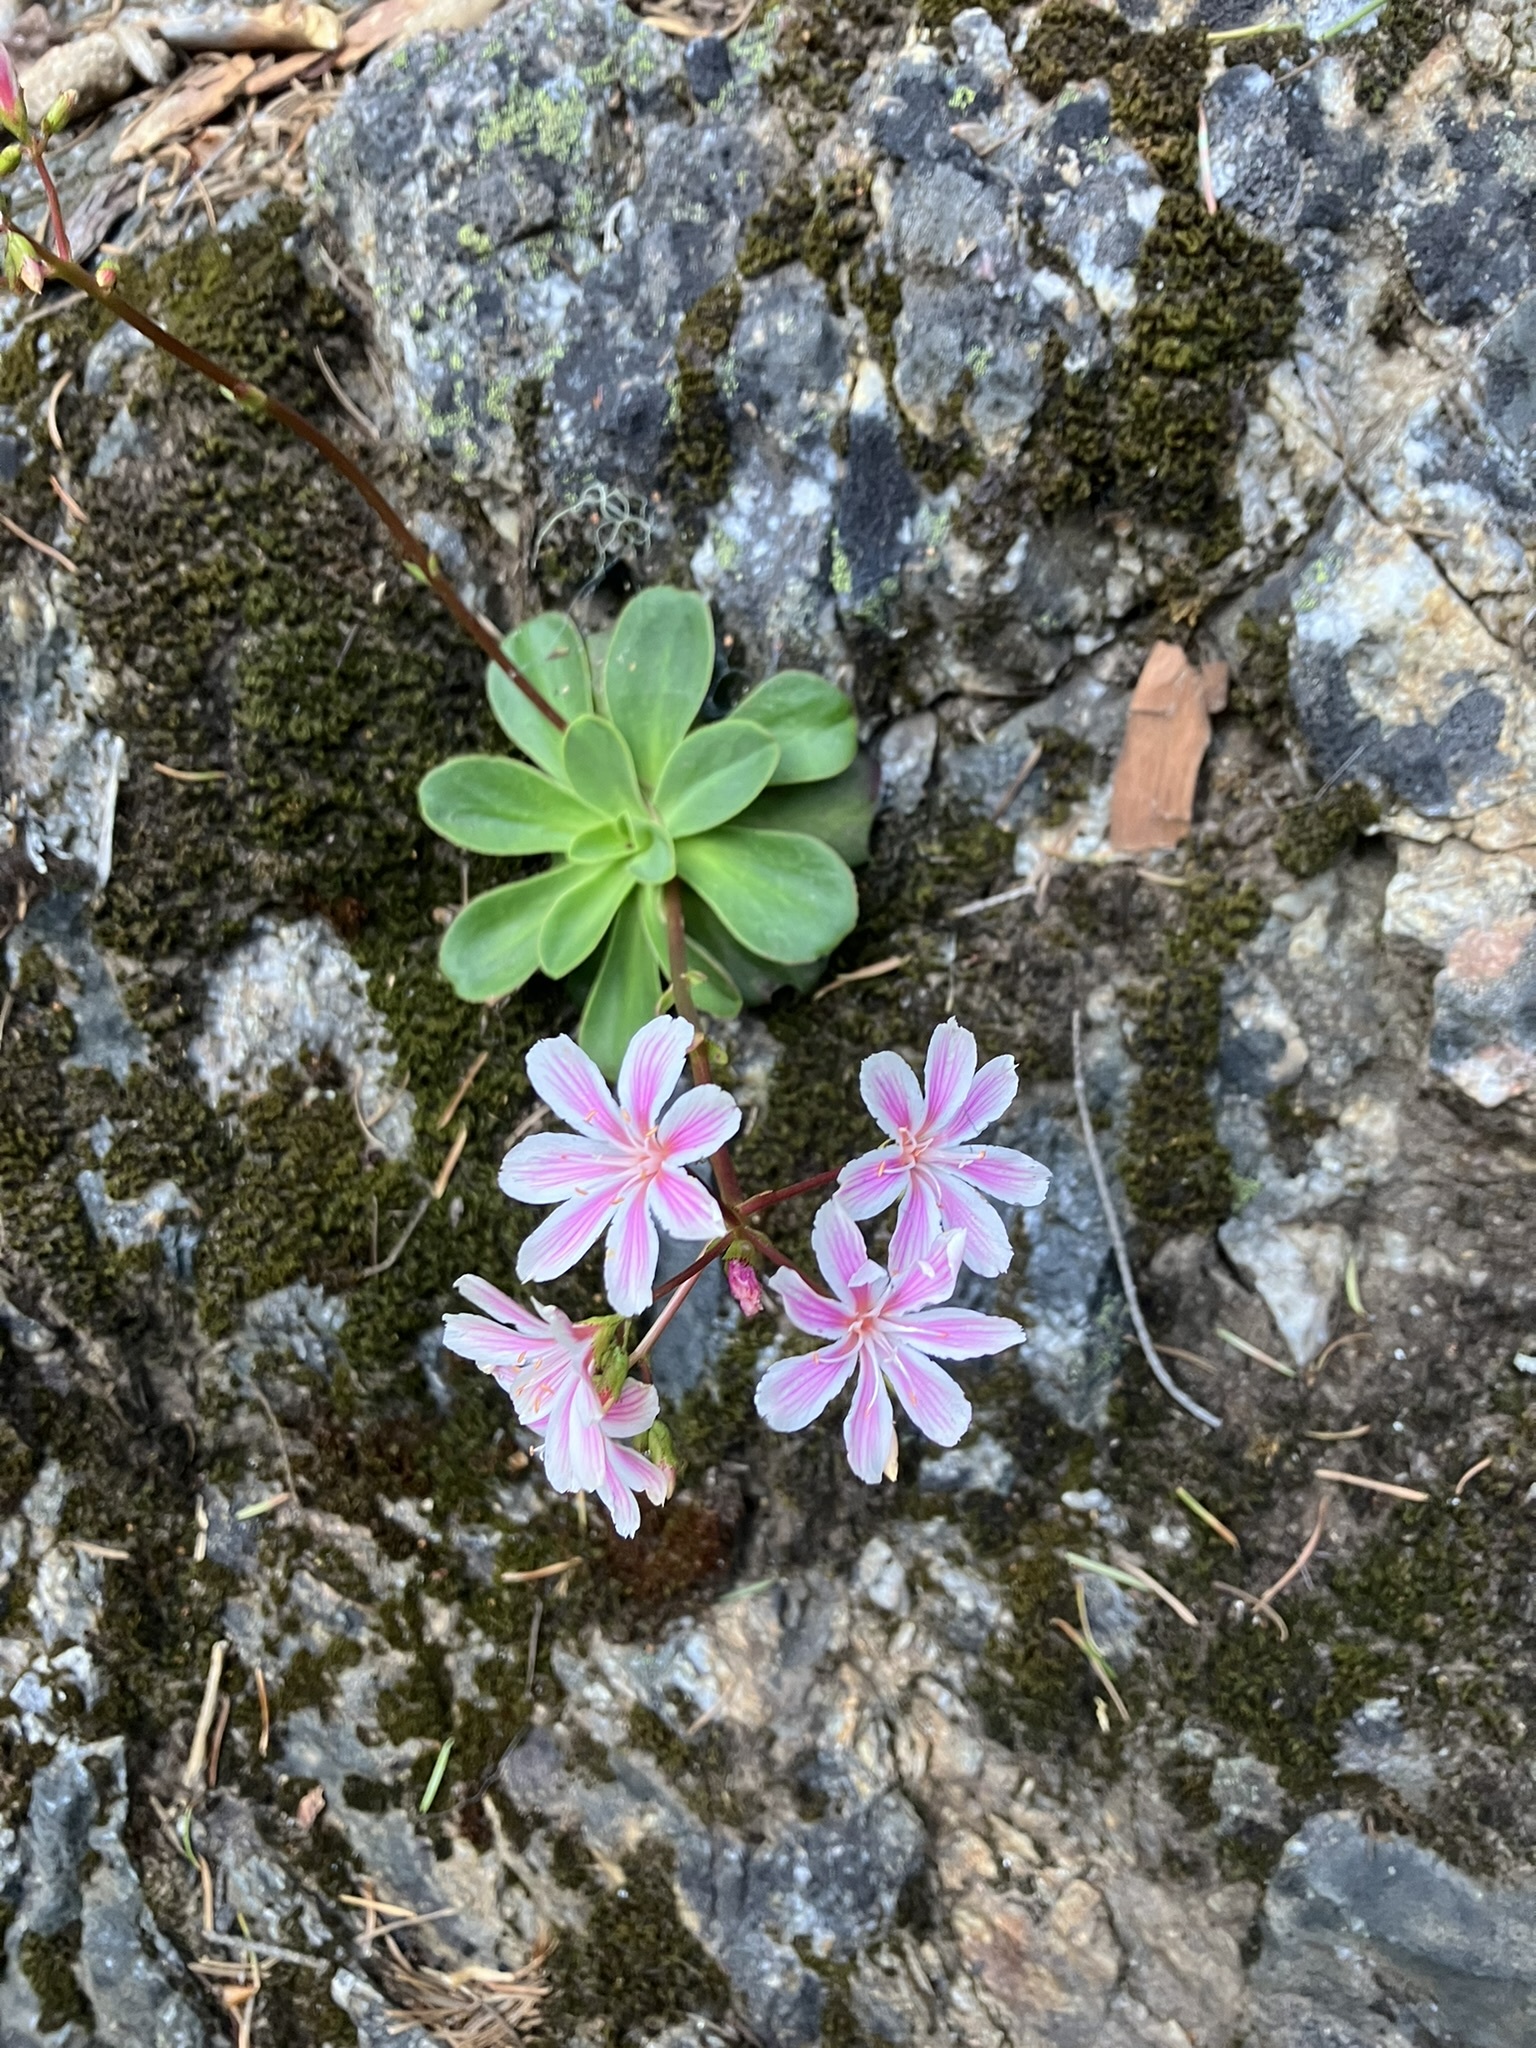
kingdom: Plantae
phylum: Tracheophyta
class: Magnoliopsida
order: Caryophyllales
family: Montiaceae
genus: Lewisia
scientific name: Lewisia cotyledon
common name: Siskiyou lewisia
